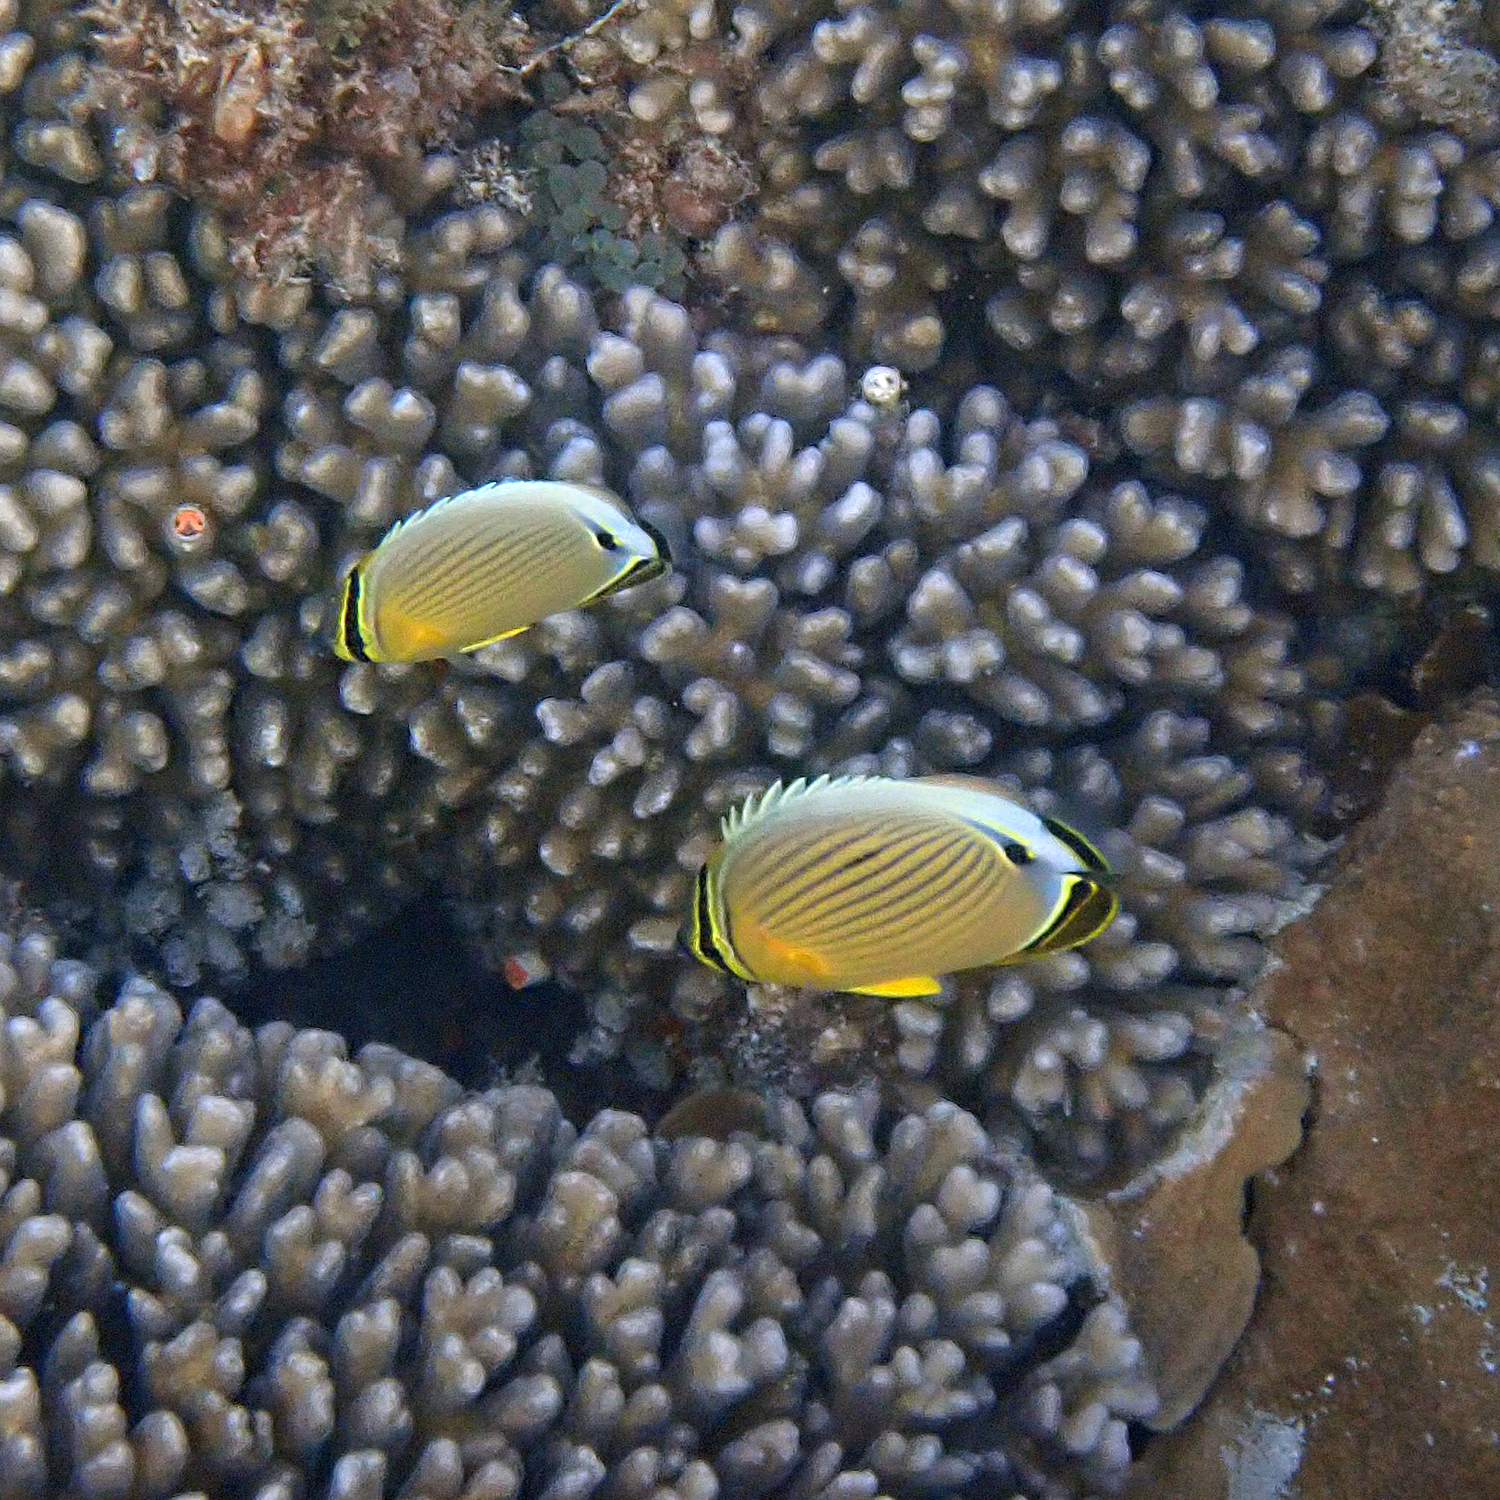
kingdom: Animalia
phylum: Chordata
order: Perciformes
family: Chaetodontidae
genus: Chaetodon
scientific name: Chaetodon lunulatus
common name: Redfin butterflyfish
